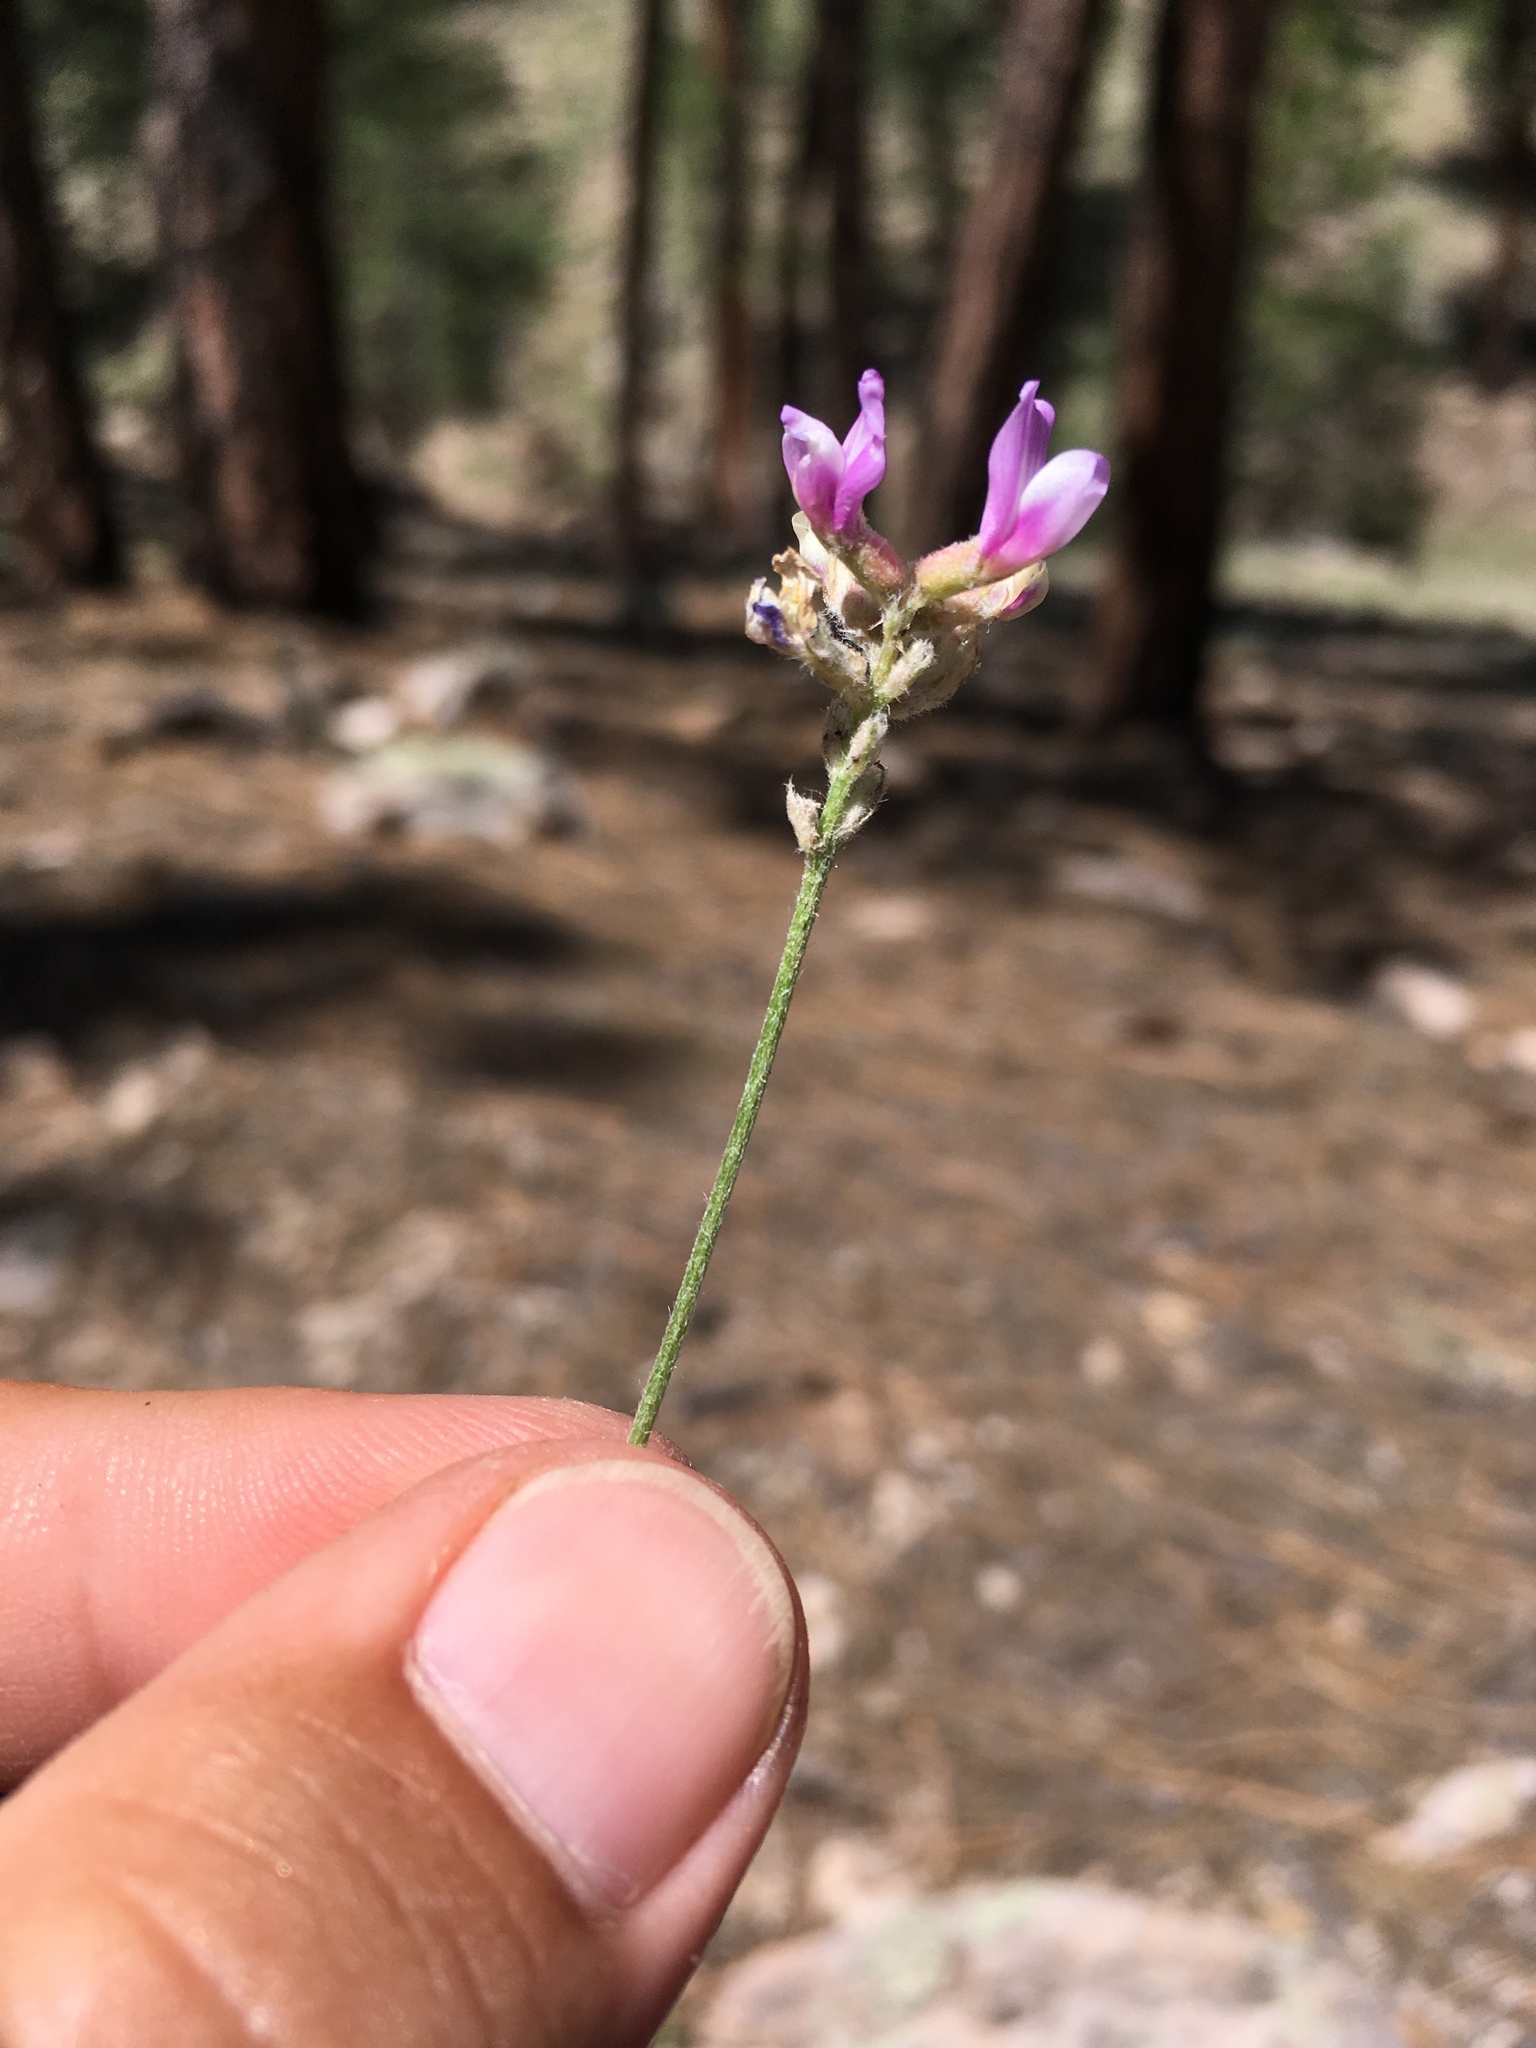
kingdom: Plantae
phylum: Tracheophyta
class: Magnoliopsida
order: Fabales
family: Fabaceae
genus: Astragalus
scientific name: Astragalus gilensis
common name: Gila milk-vetch
